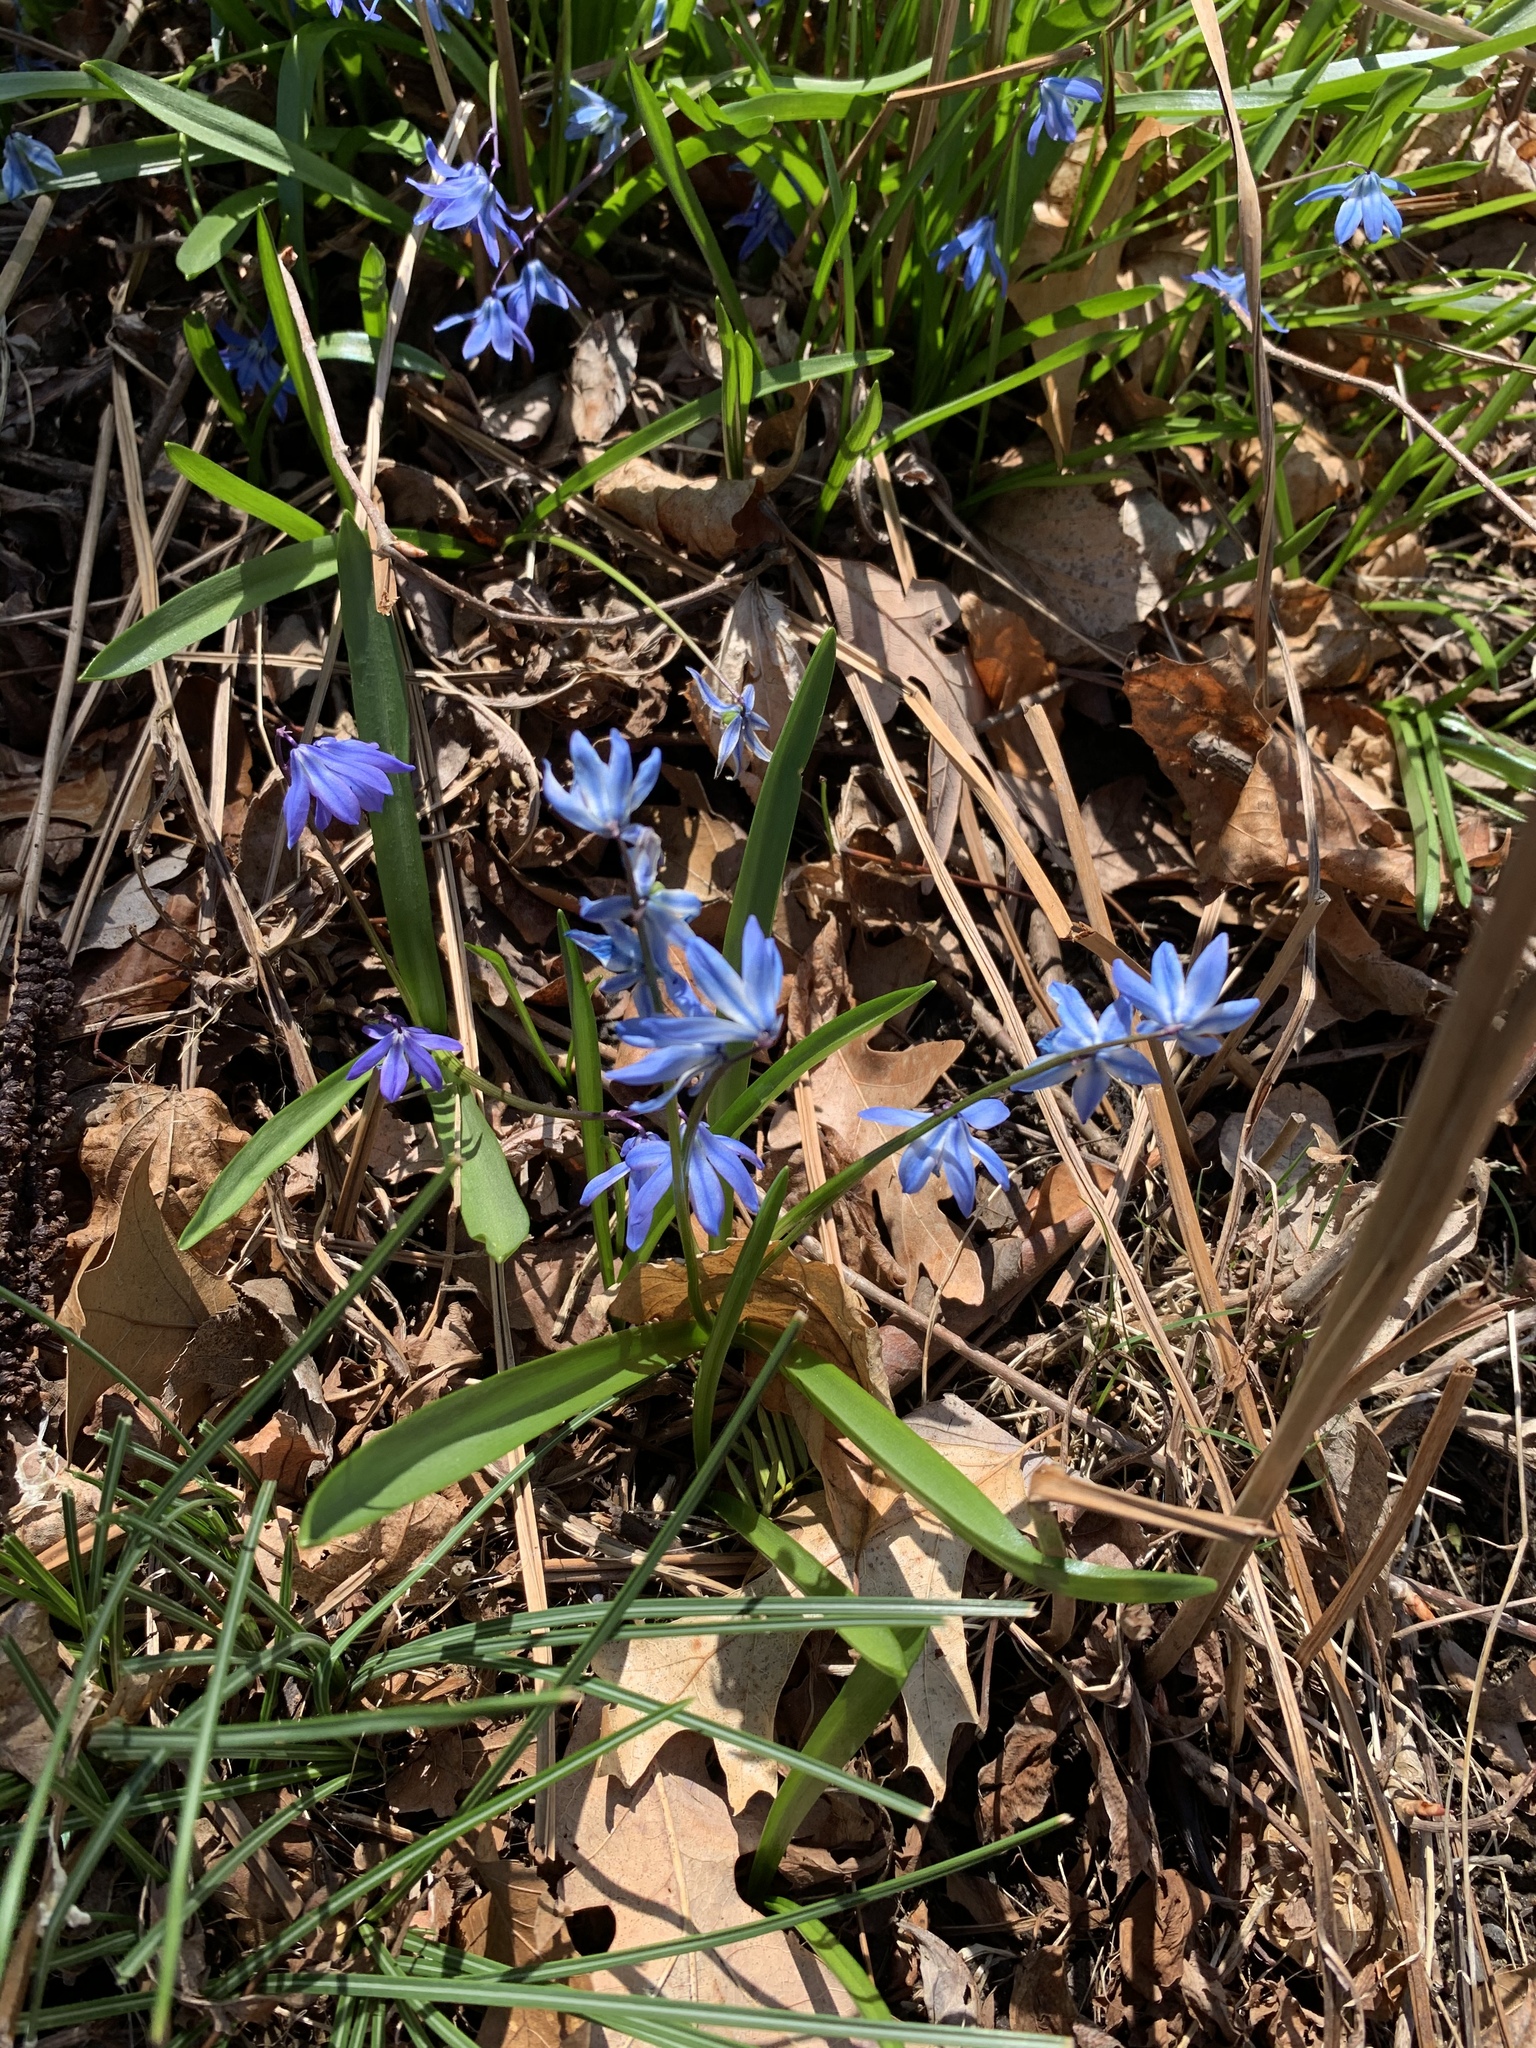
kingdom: Plantae
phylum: Tracheophyta
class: Liliopsida
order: Asparagales
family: Asparagaceae
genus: Scilla
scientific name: Scilla siberica
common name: Siberian squill
